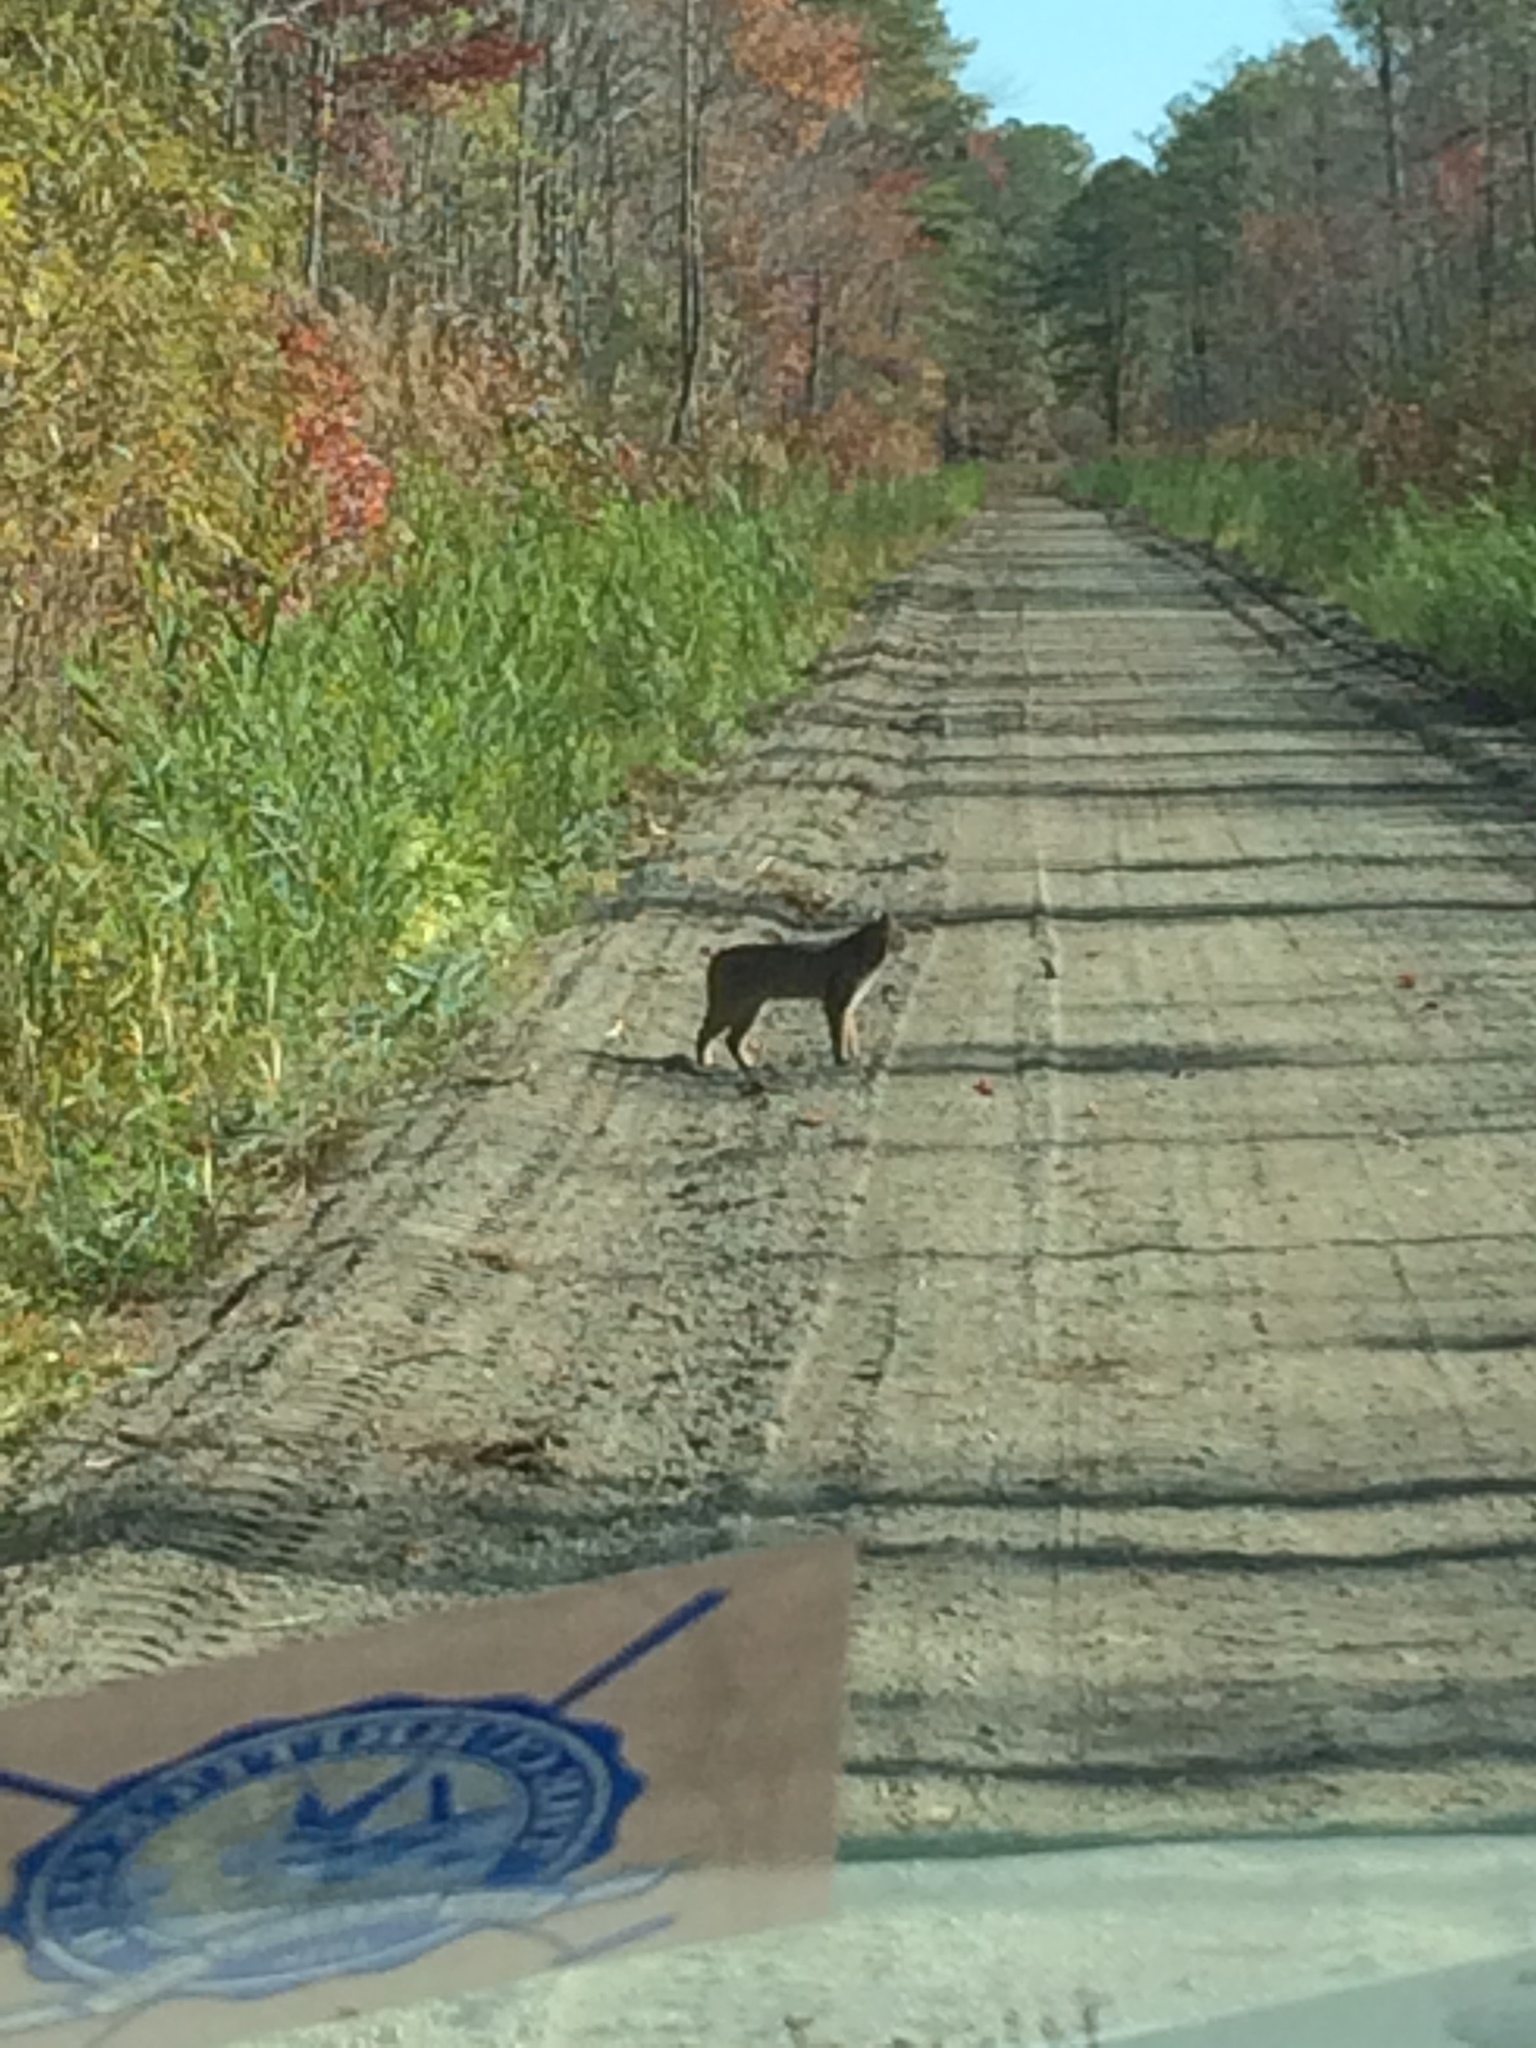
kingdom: Animalia
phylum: Chordata
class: Mammalia
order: Carnivora
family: Felidae
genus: Lynx
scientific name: Lynx rufus
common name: Bobcat
